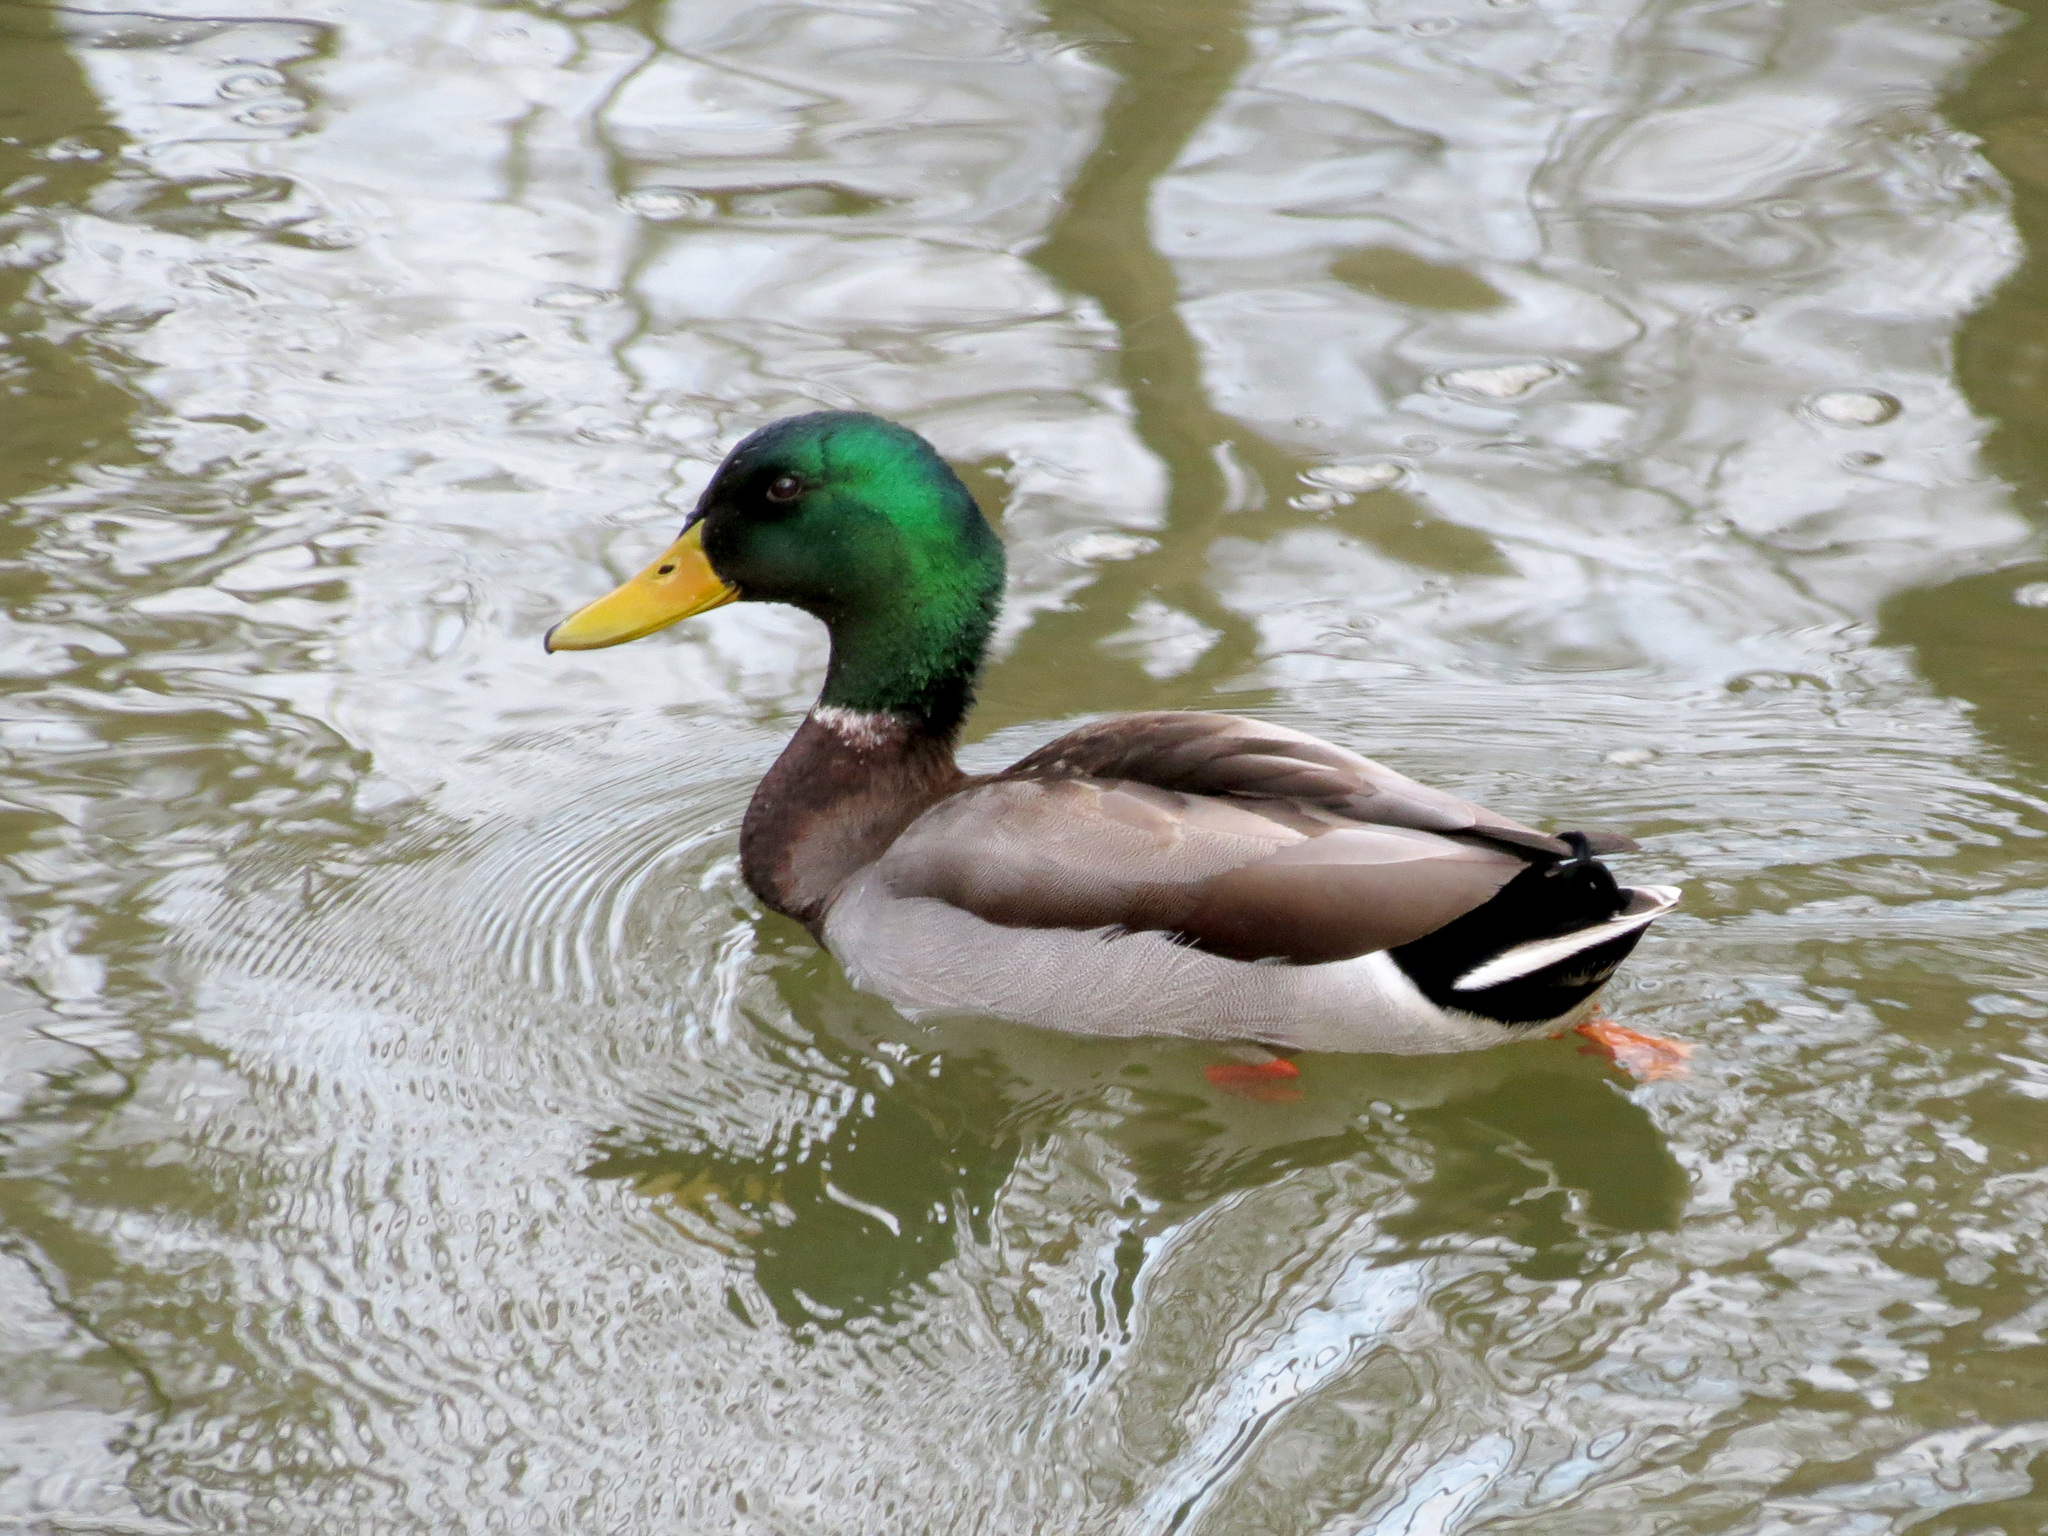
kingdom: Animalia
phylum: Chordata
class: Aves
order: Anseriformes
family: Anatidae
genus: Anas
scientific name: Anas platyrhynchos
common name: Mallard
